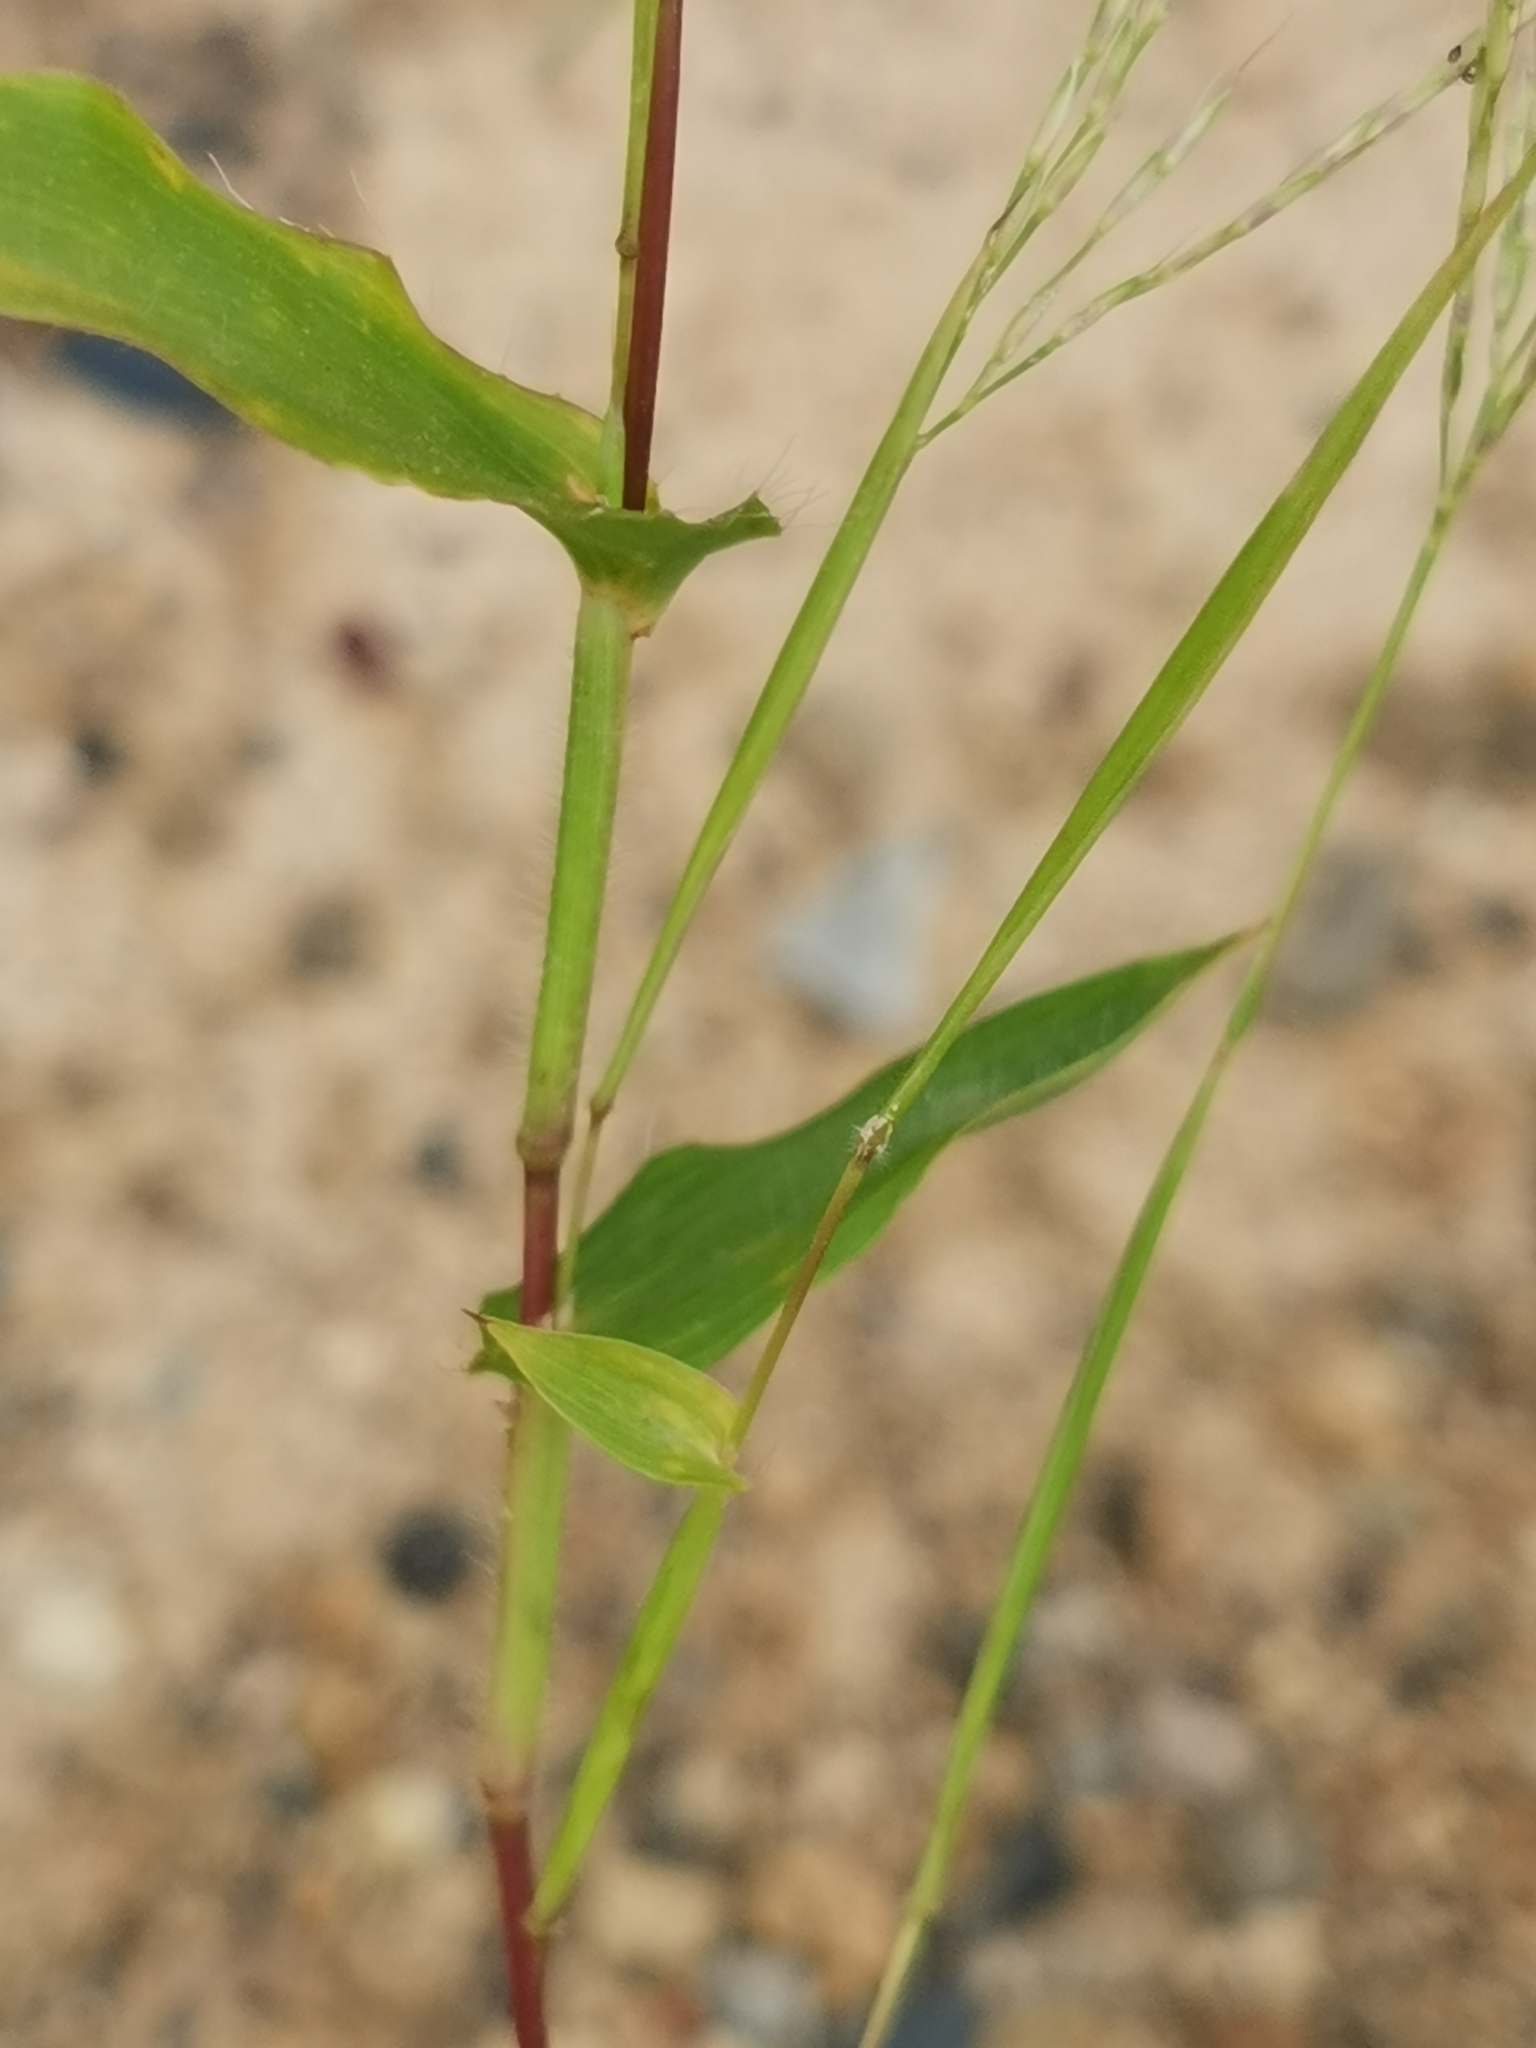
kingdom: Plantae
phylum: Tracheophyta
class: Liliopsida
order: Poales
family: Poaceae
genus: Arthraxon
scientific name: Arthraxon hispidus
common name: Small carpgrass
